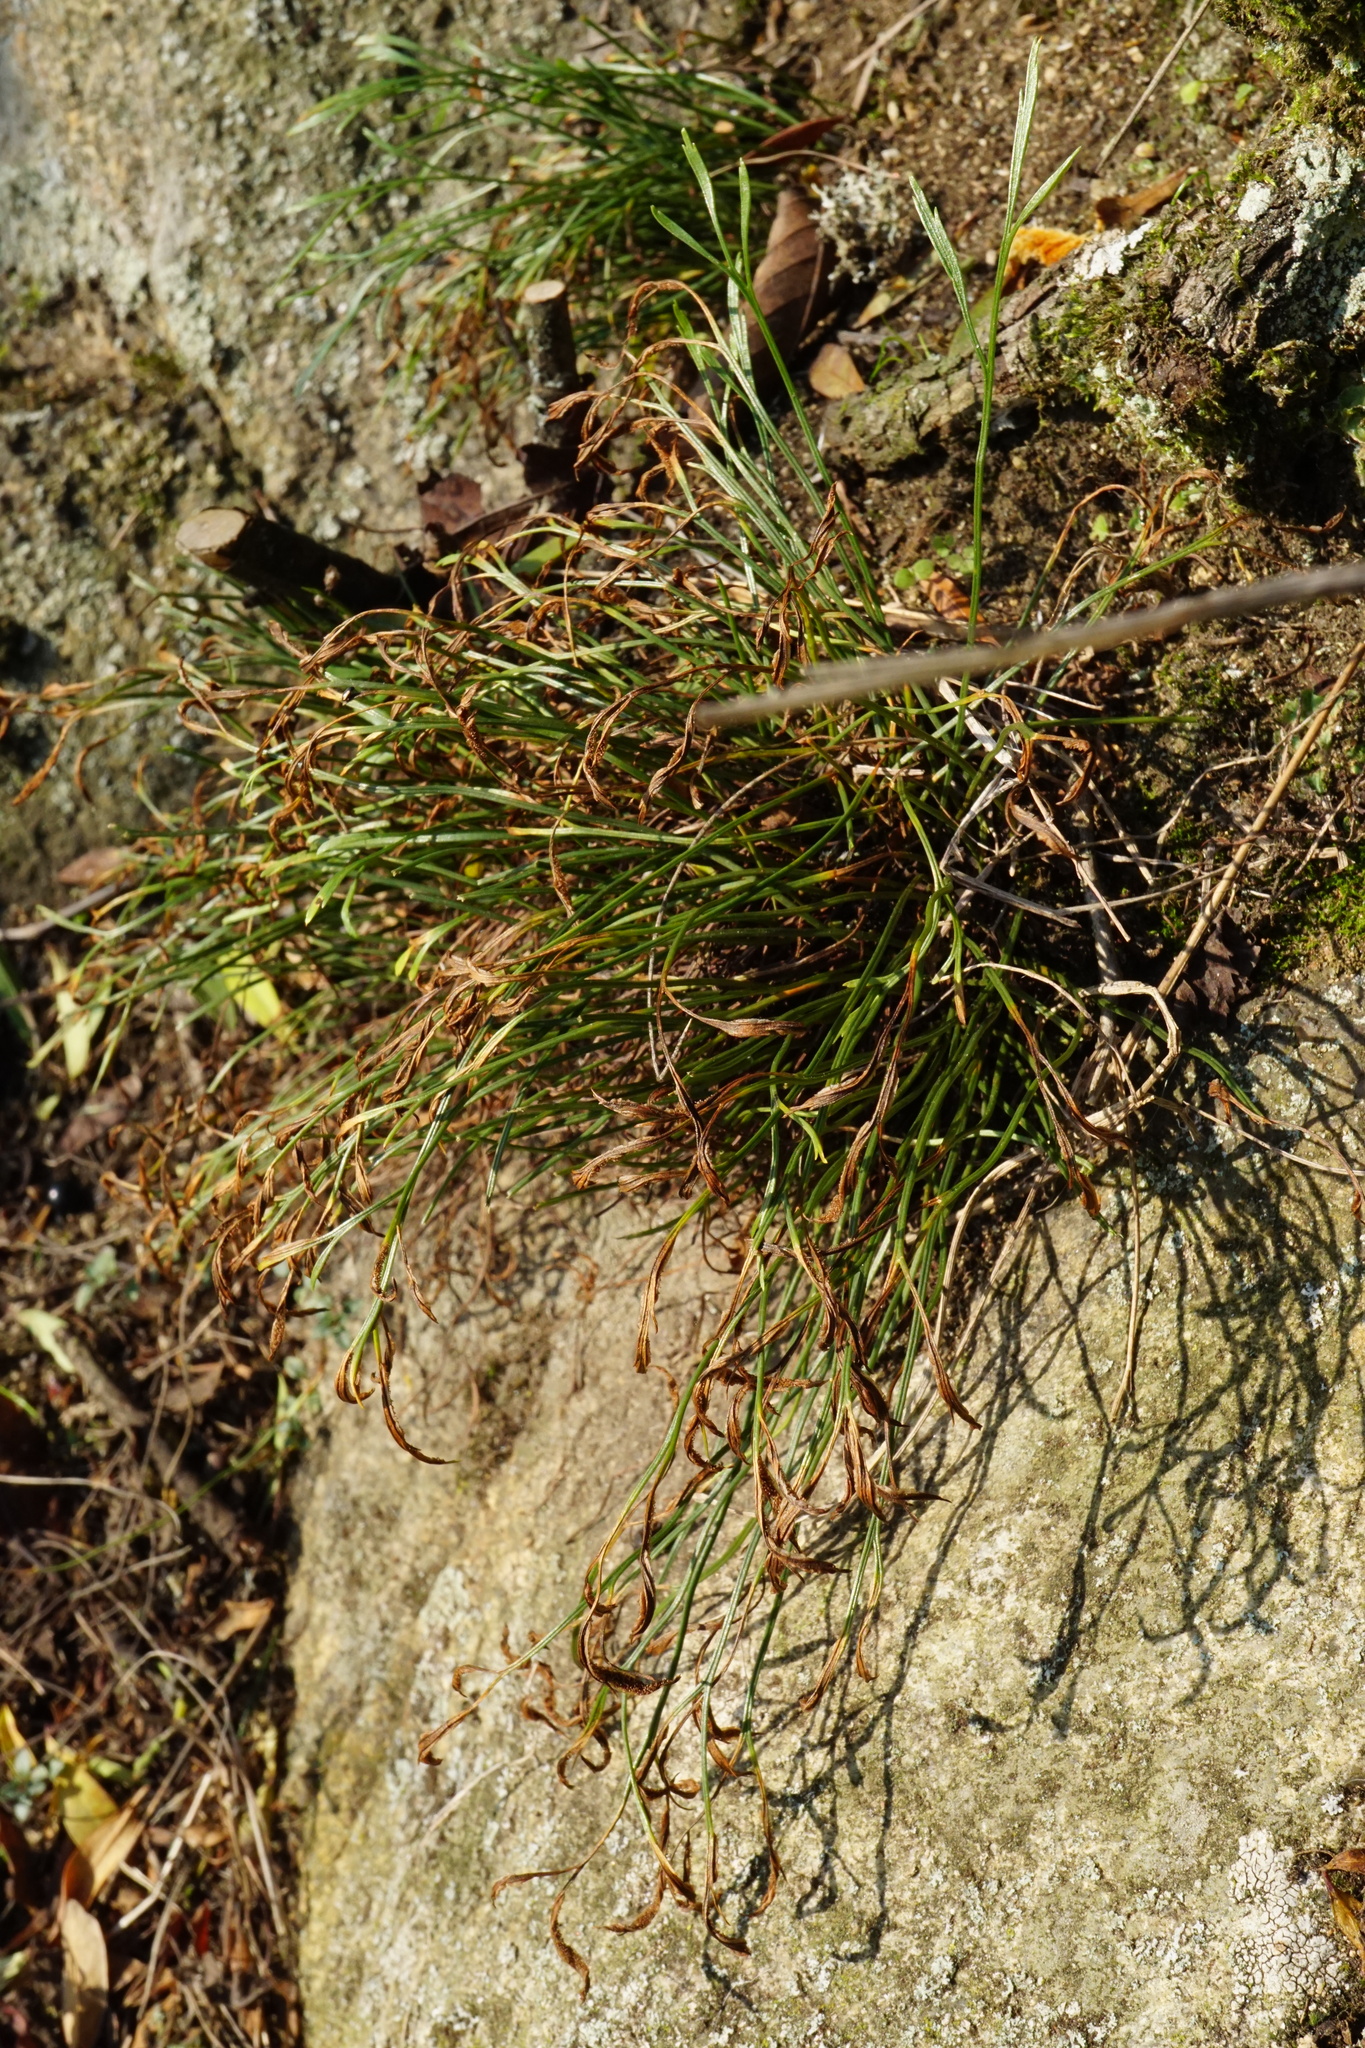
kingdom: Plantae
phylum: Tracheophyta
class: Polypodiopsida
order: Polypodiales
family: Aspleniaceae
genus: Asplenium
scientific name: Asplenium septentrionale
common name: Forked spleenwort
